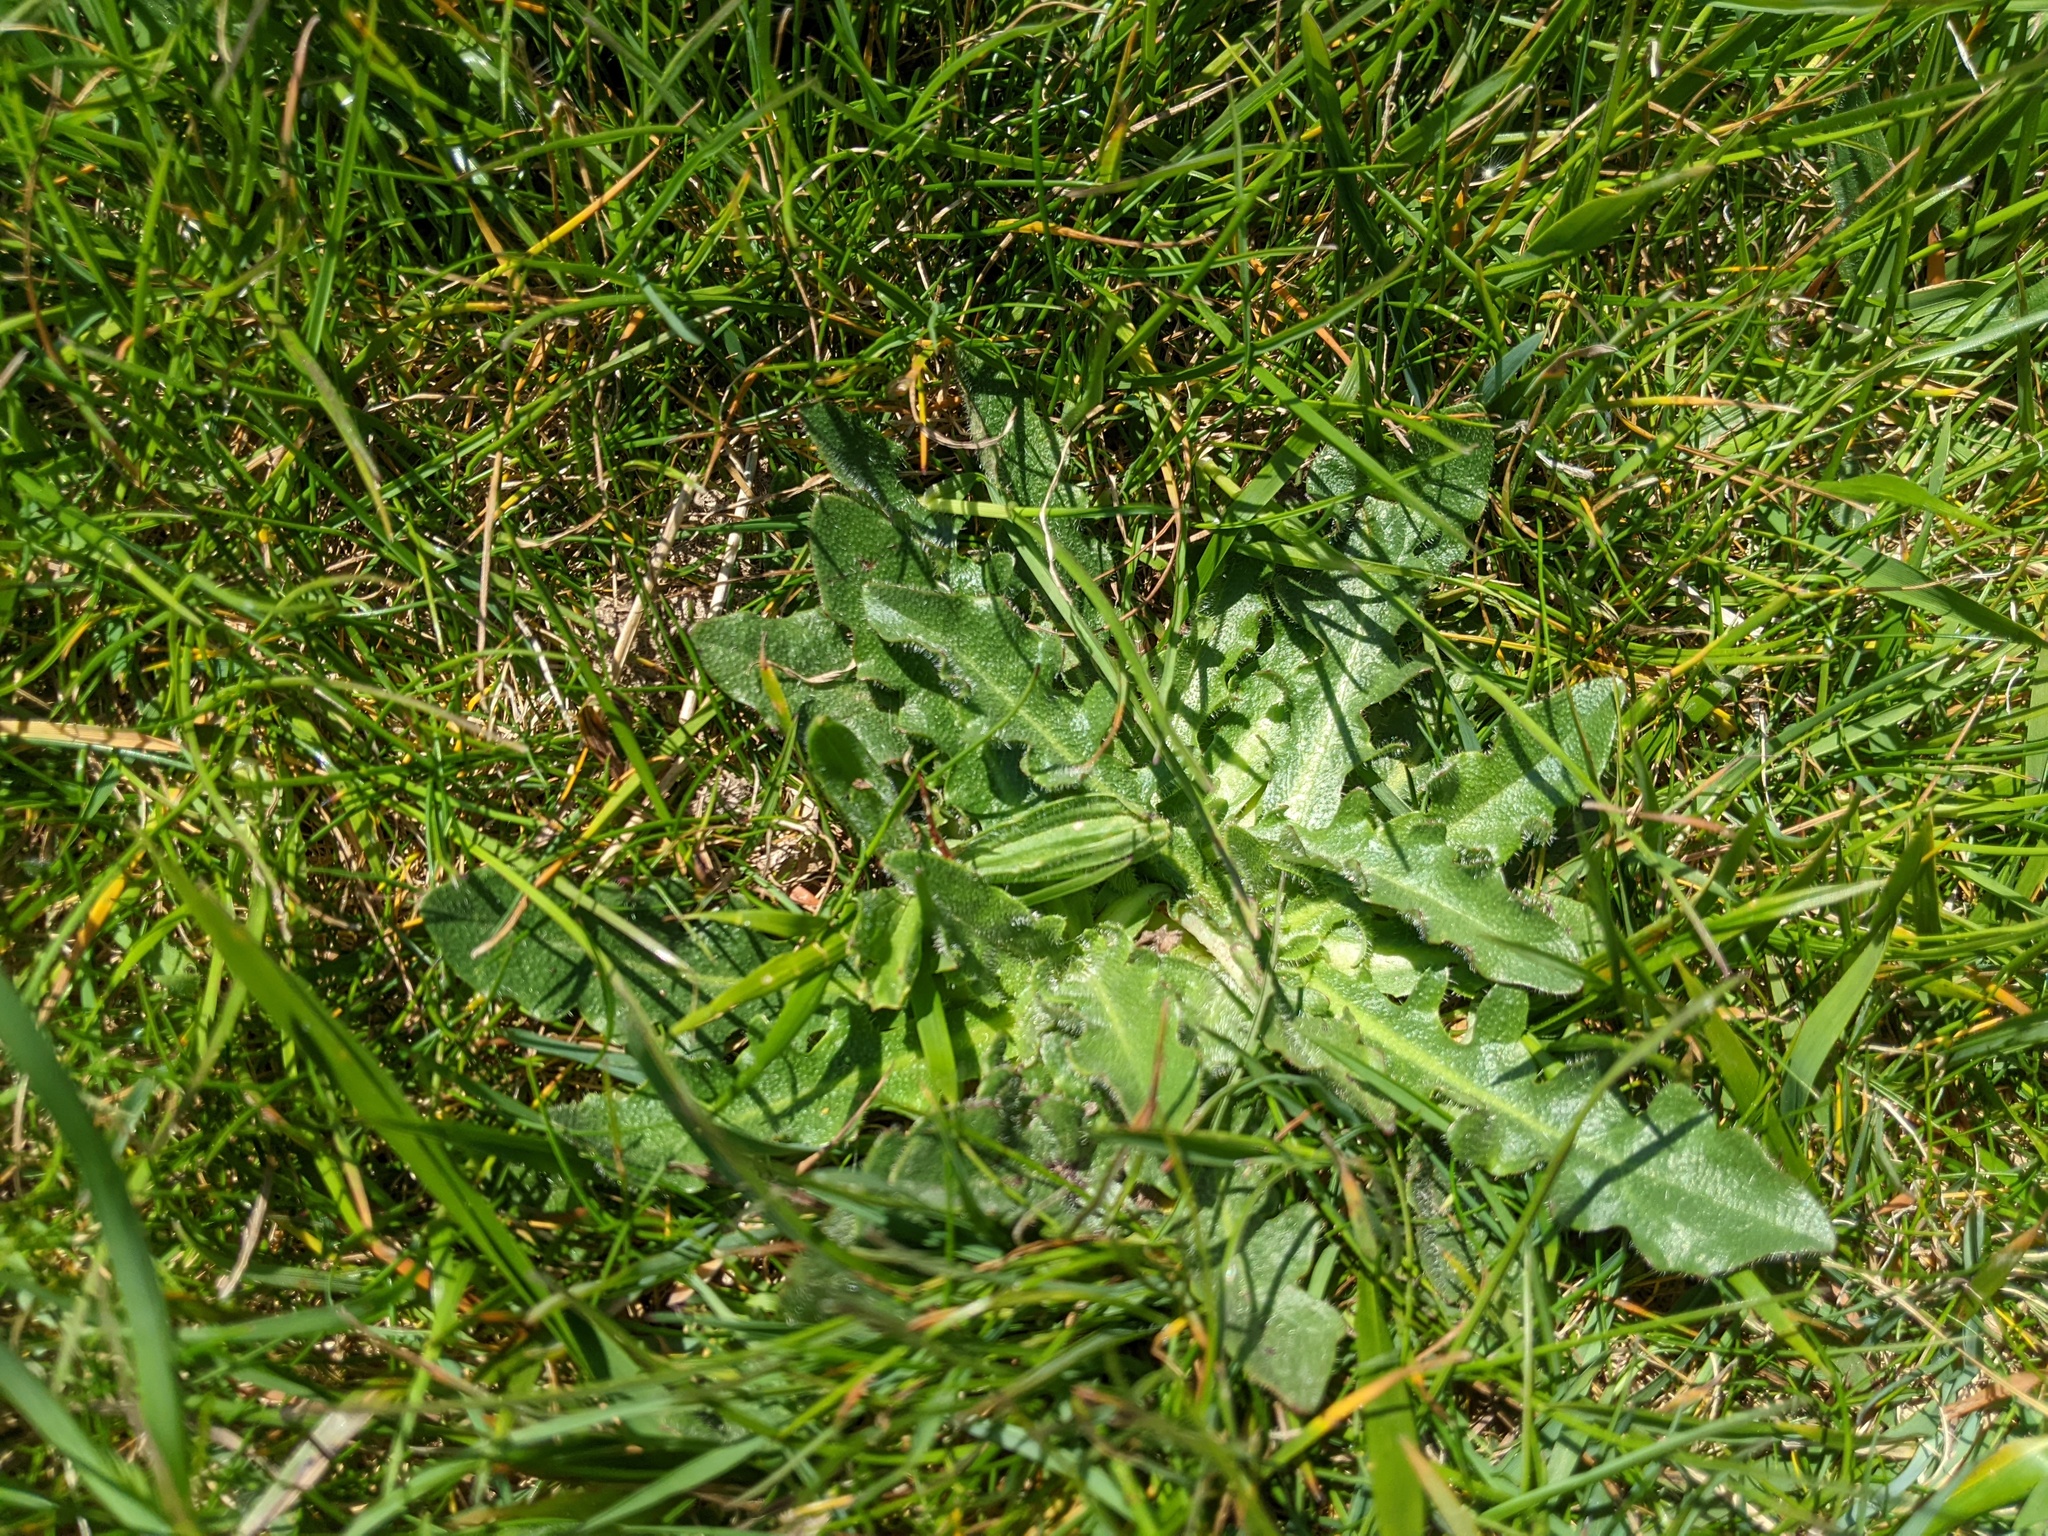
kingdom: Plantae
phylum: Tracheophyta
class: Magnoliopsida
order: Asterales
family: Asteraceae
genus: Hypochaeris
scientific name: Hypochaeris radicata
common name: Flatweed
